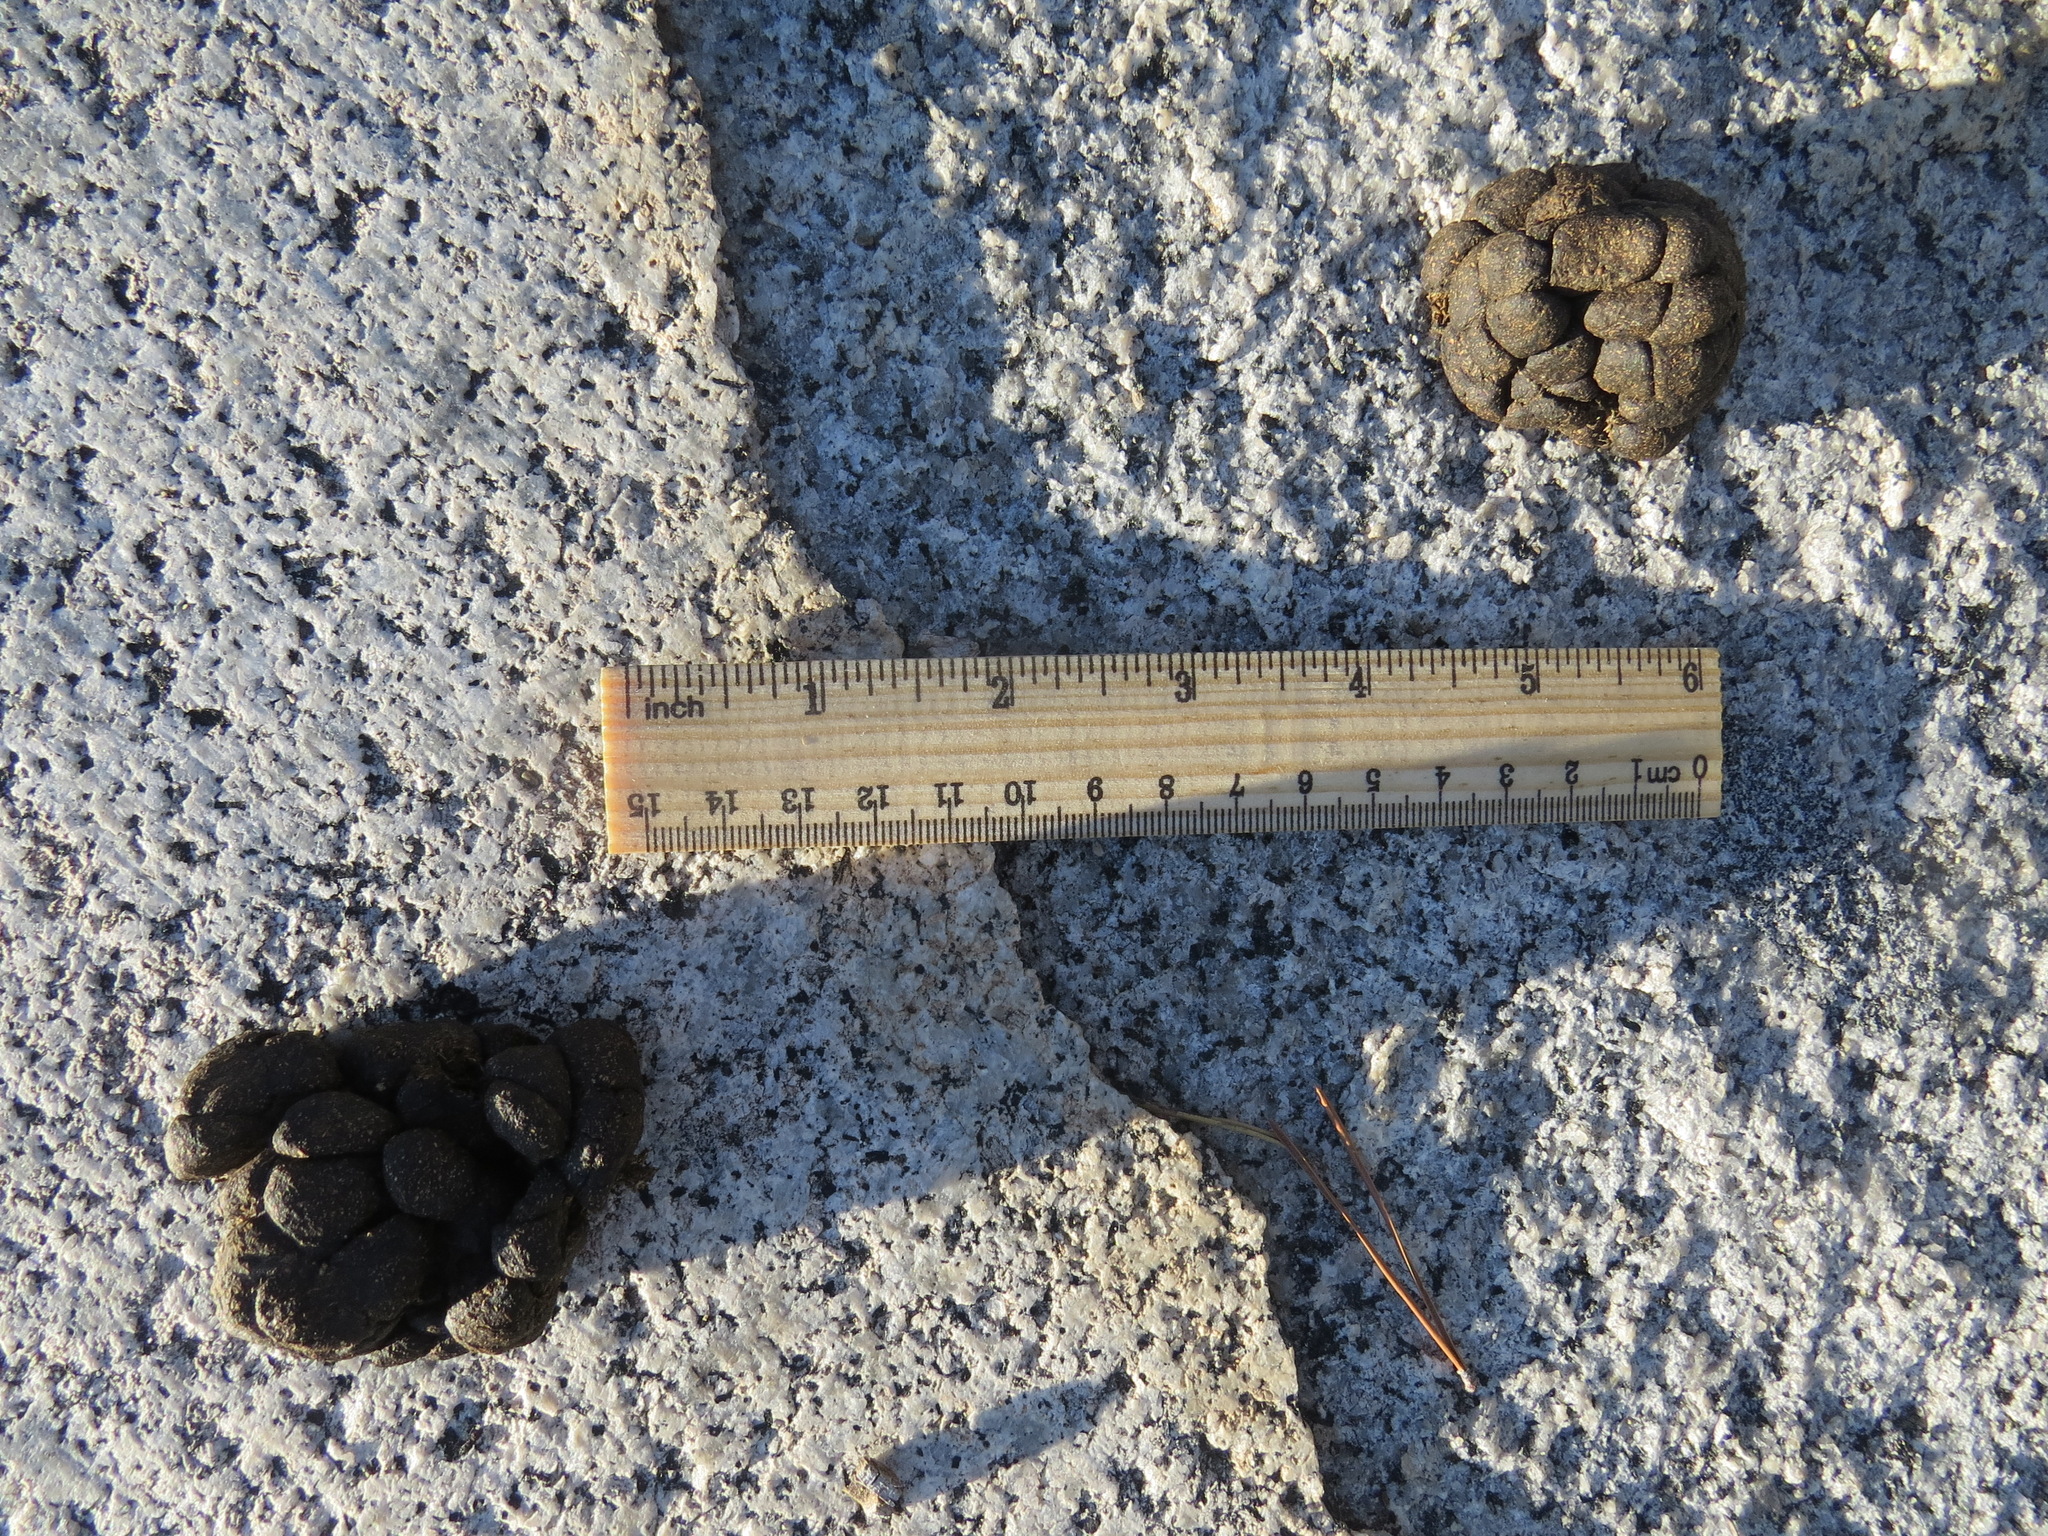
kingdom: Animalia
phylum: Chordata
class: Mammalia
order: Artiodactyla
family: Cervidae
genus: Odocoileus
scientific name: Odocoileus hemionus
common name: Mule deer
